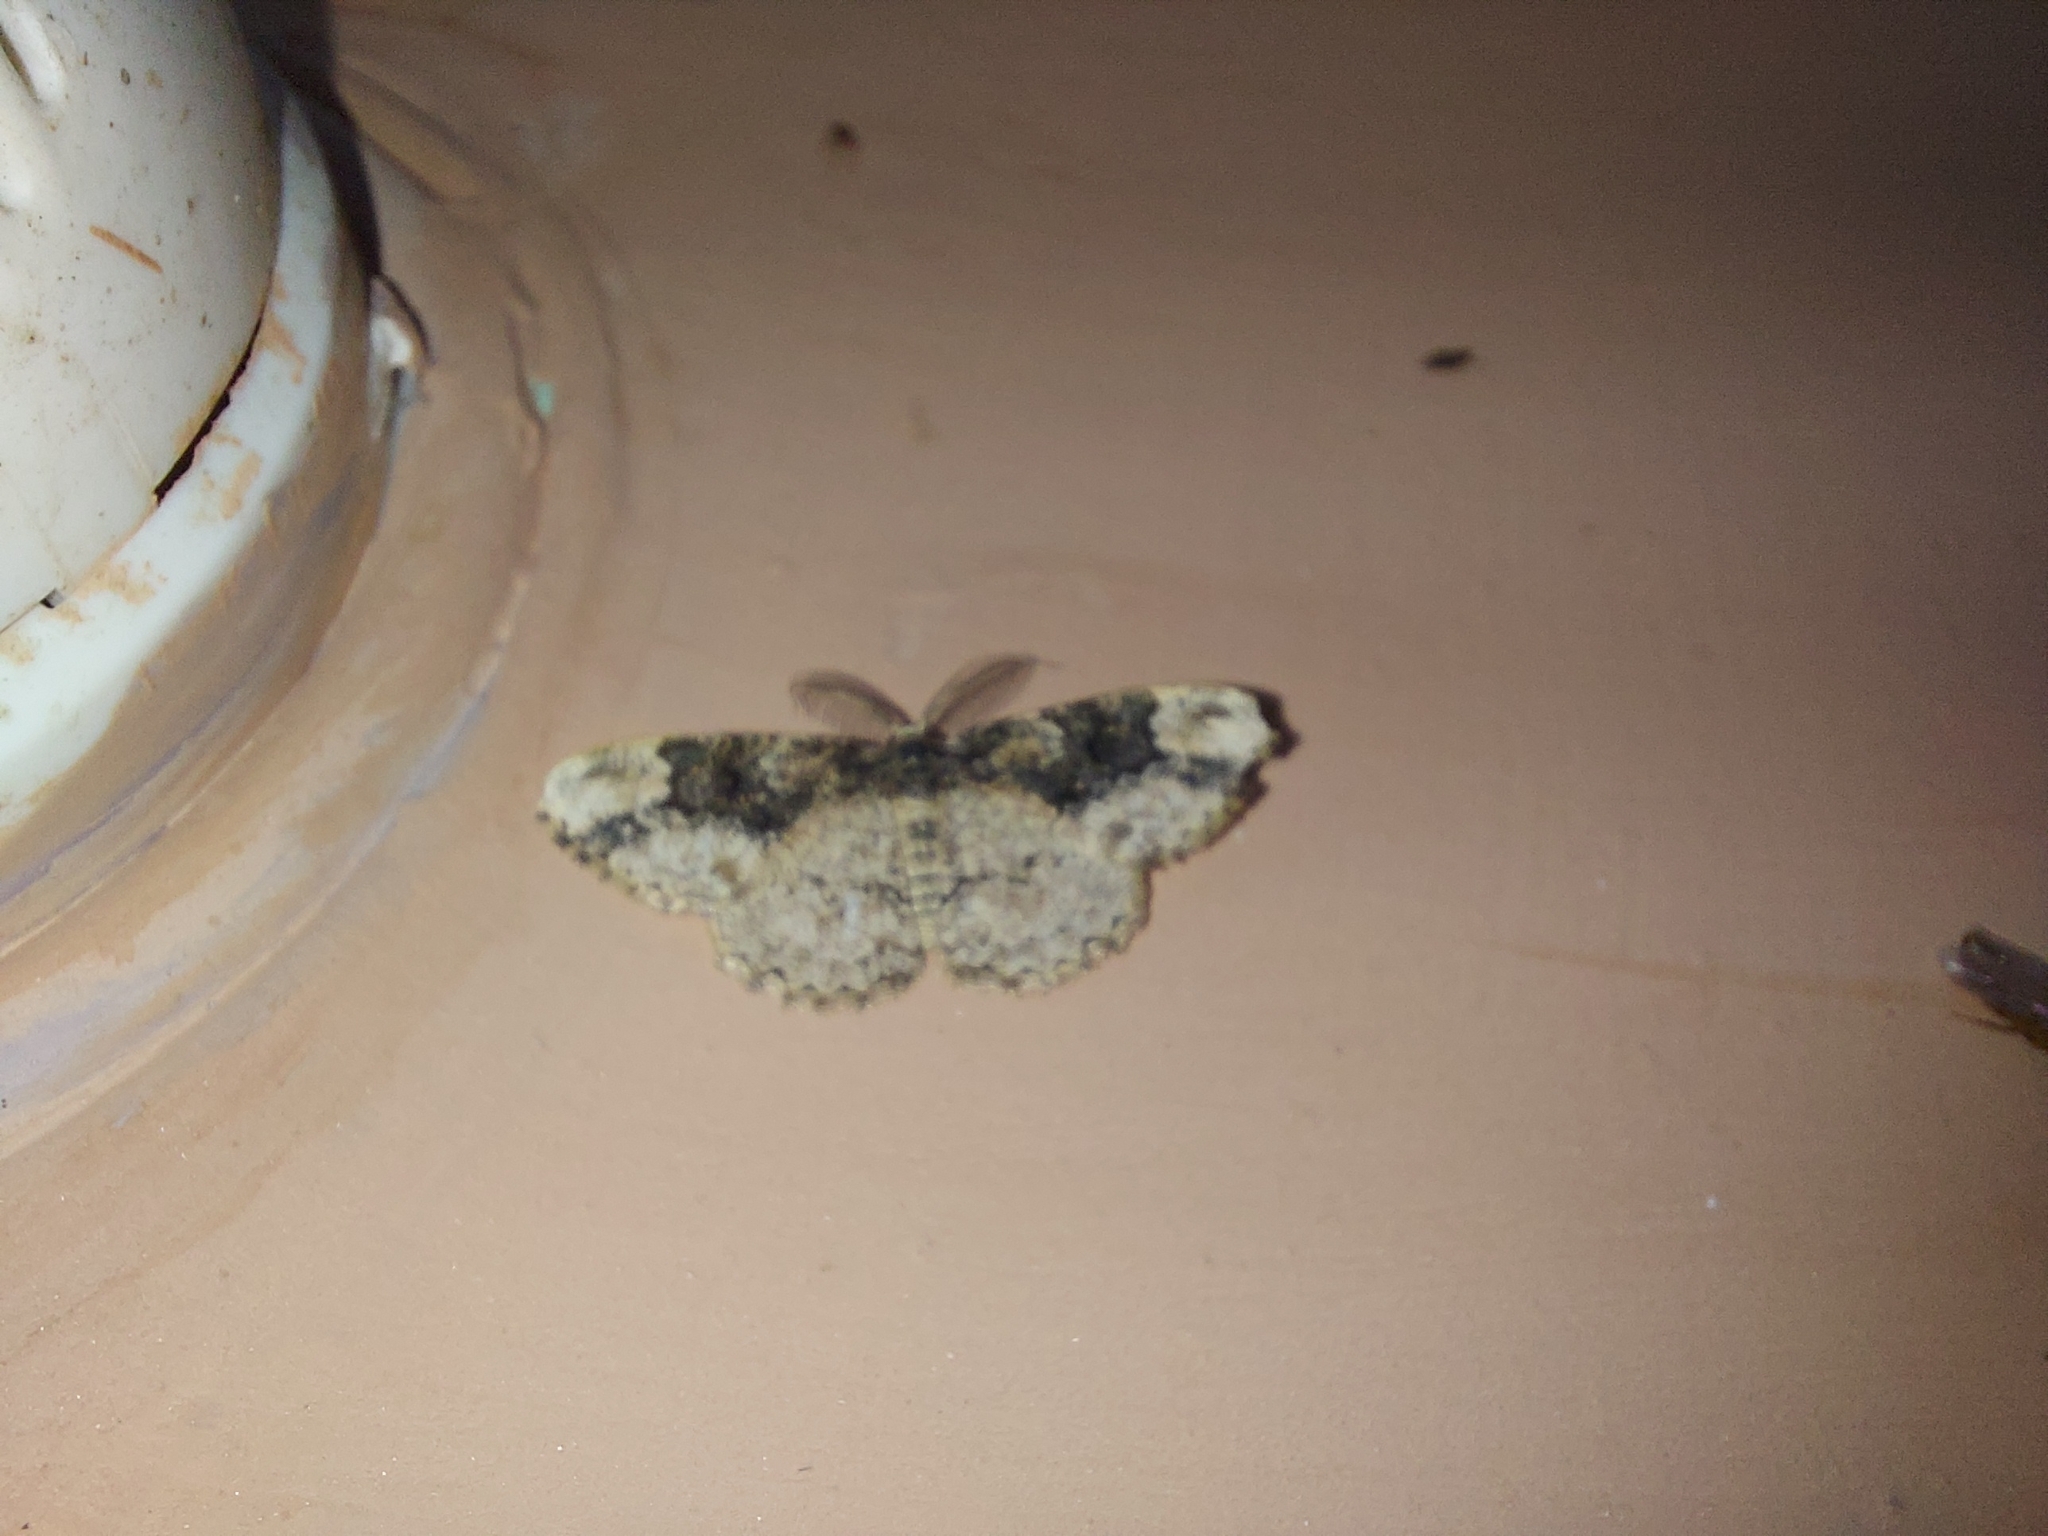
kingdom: Animalia
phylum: Arthropoda
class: Insecta
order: Lepidoptera
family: Geometridae
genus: Parapholodes
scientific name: Parapholodes
